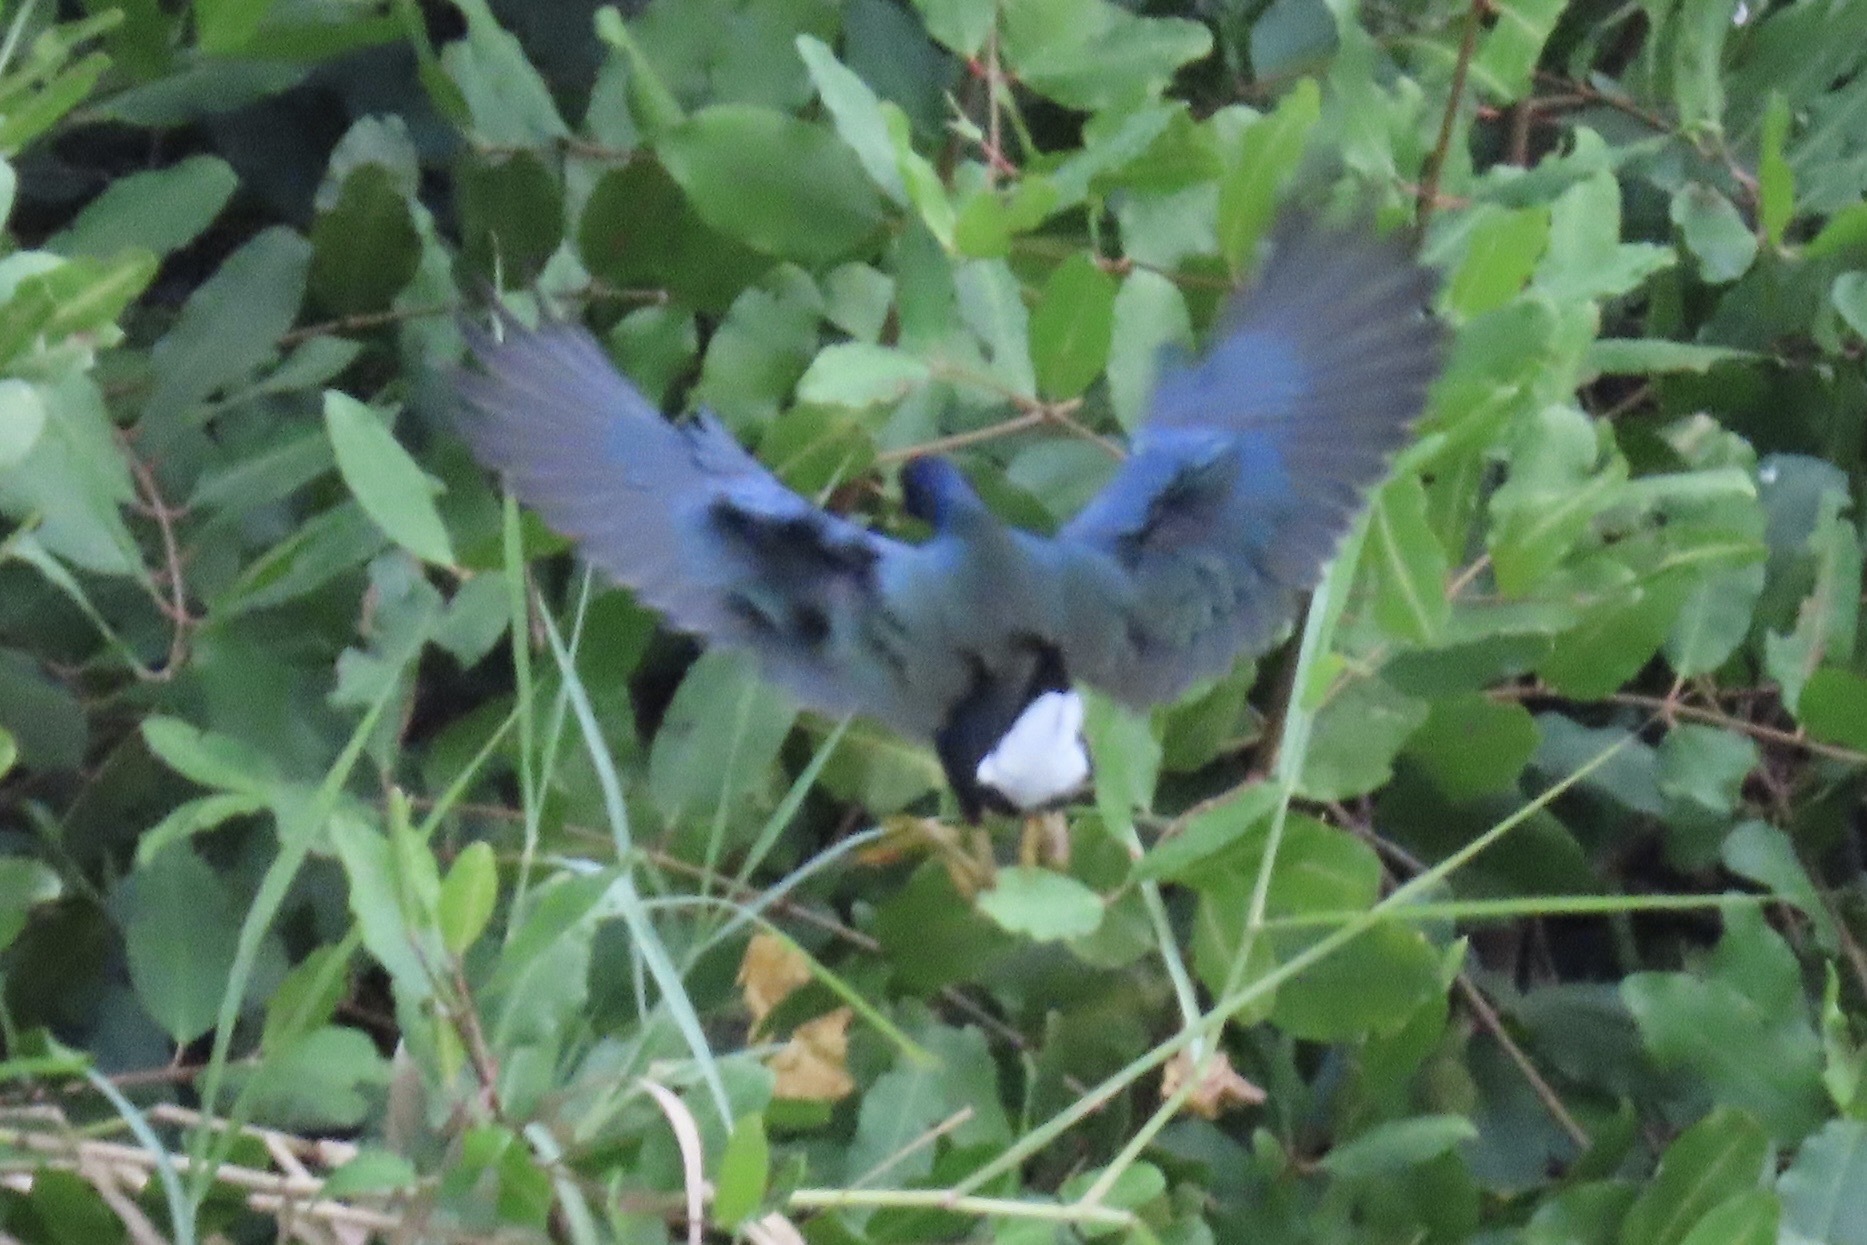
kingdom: Animalia
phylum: Chordata
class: Aves
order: Gruiformes
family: Rallidae
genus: Porphyrio
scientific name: Porphyrio martinica
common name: Purple gallinule
